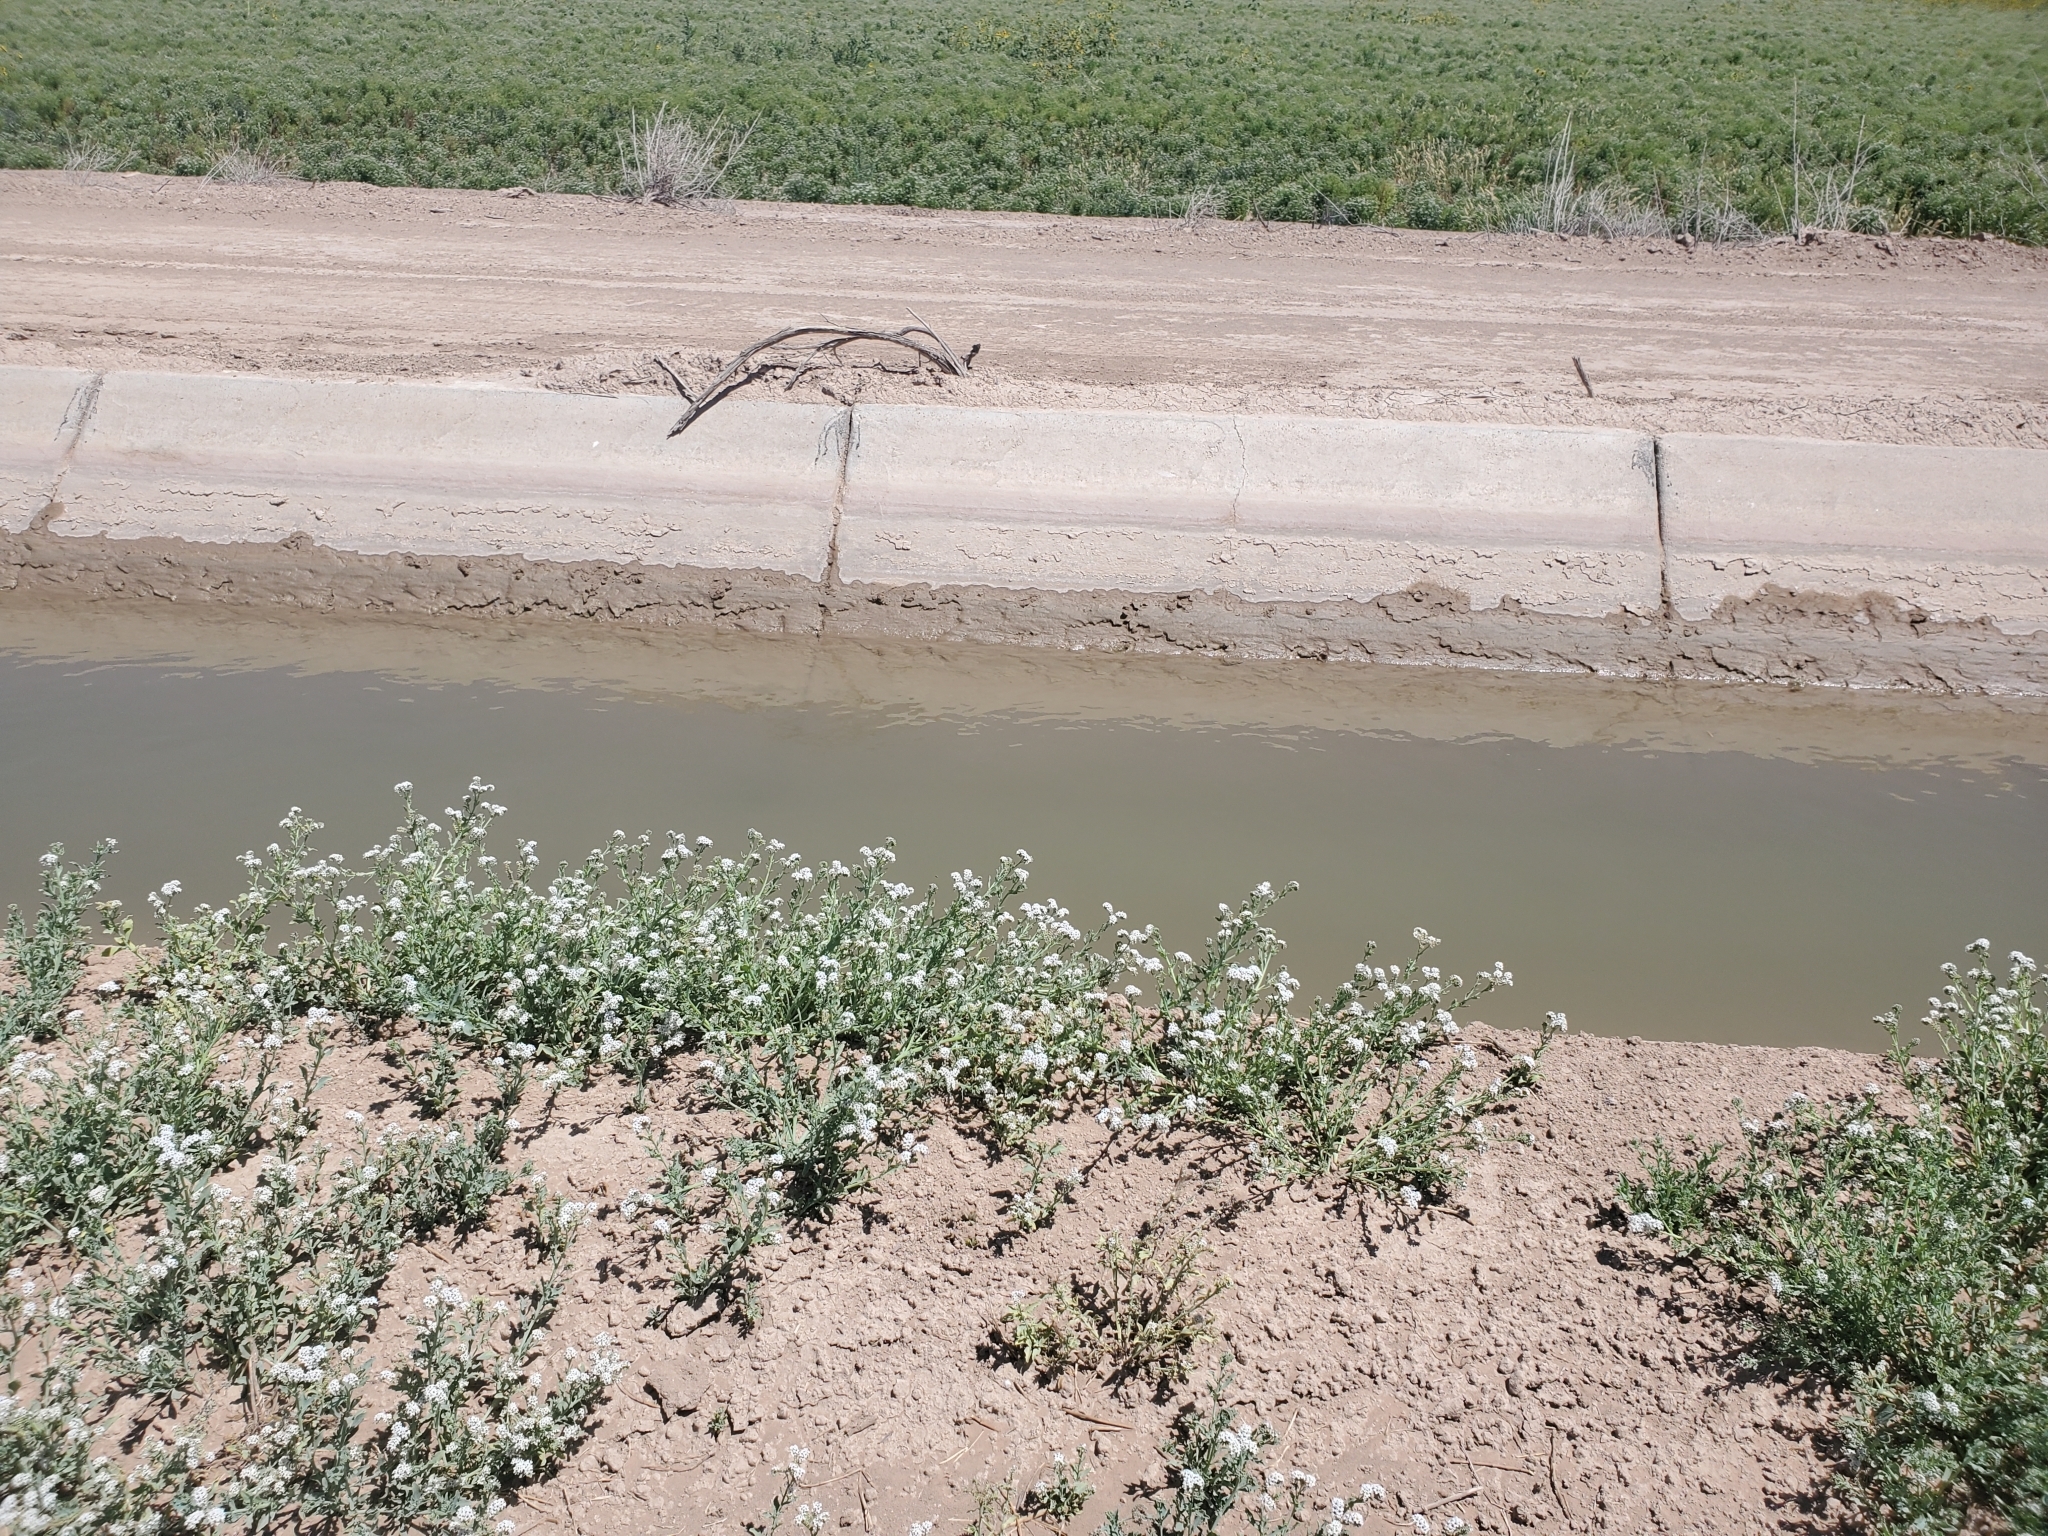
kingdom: Plantae
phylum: Tracheophyta
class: Magnoliopsida
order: Boraginales
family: Heliotropiaceae
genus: Heliotropium
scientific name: Heliotropium curassavicum
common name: Seaside heliotrope
